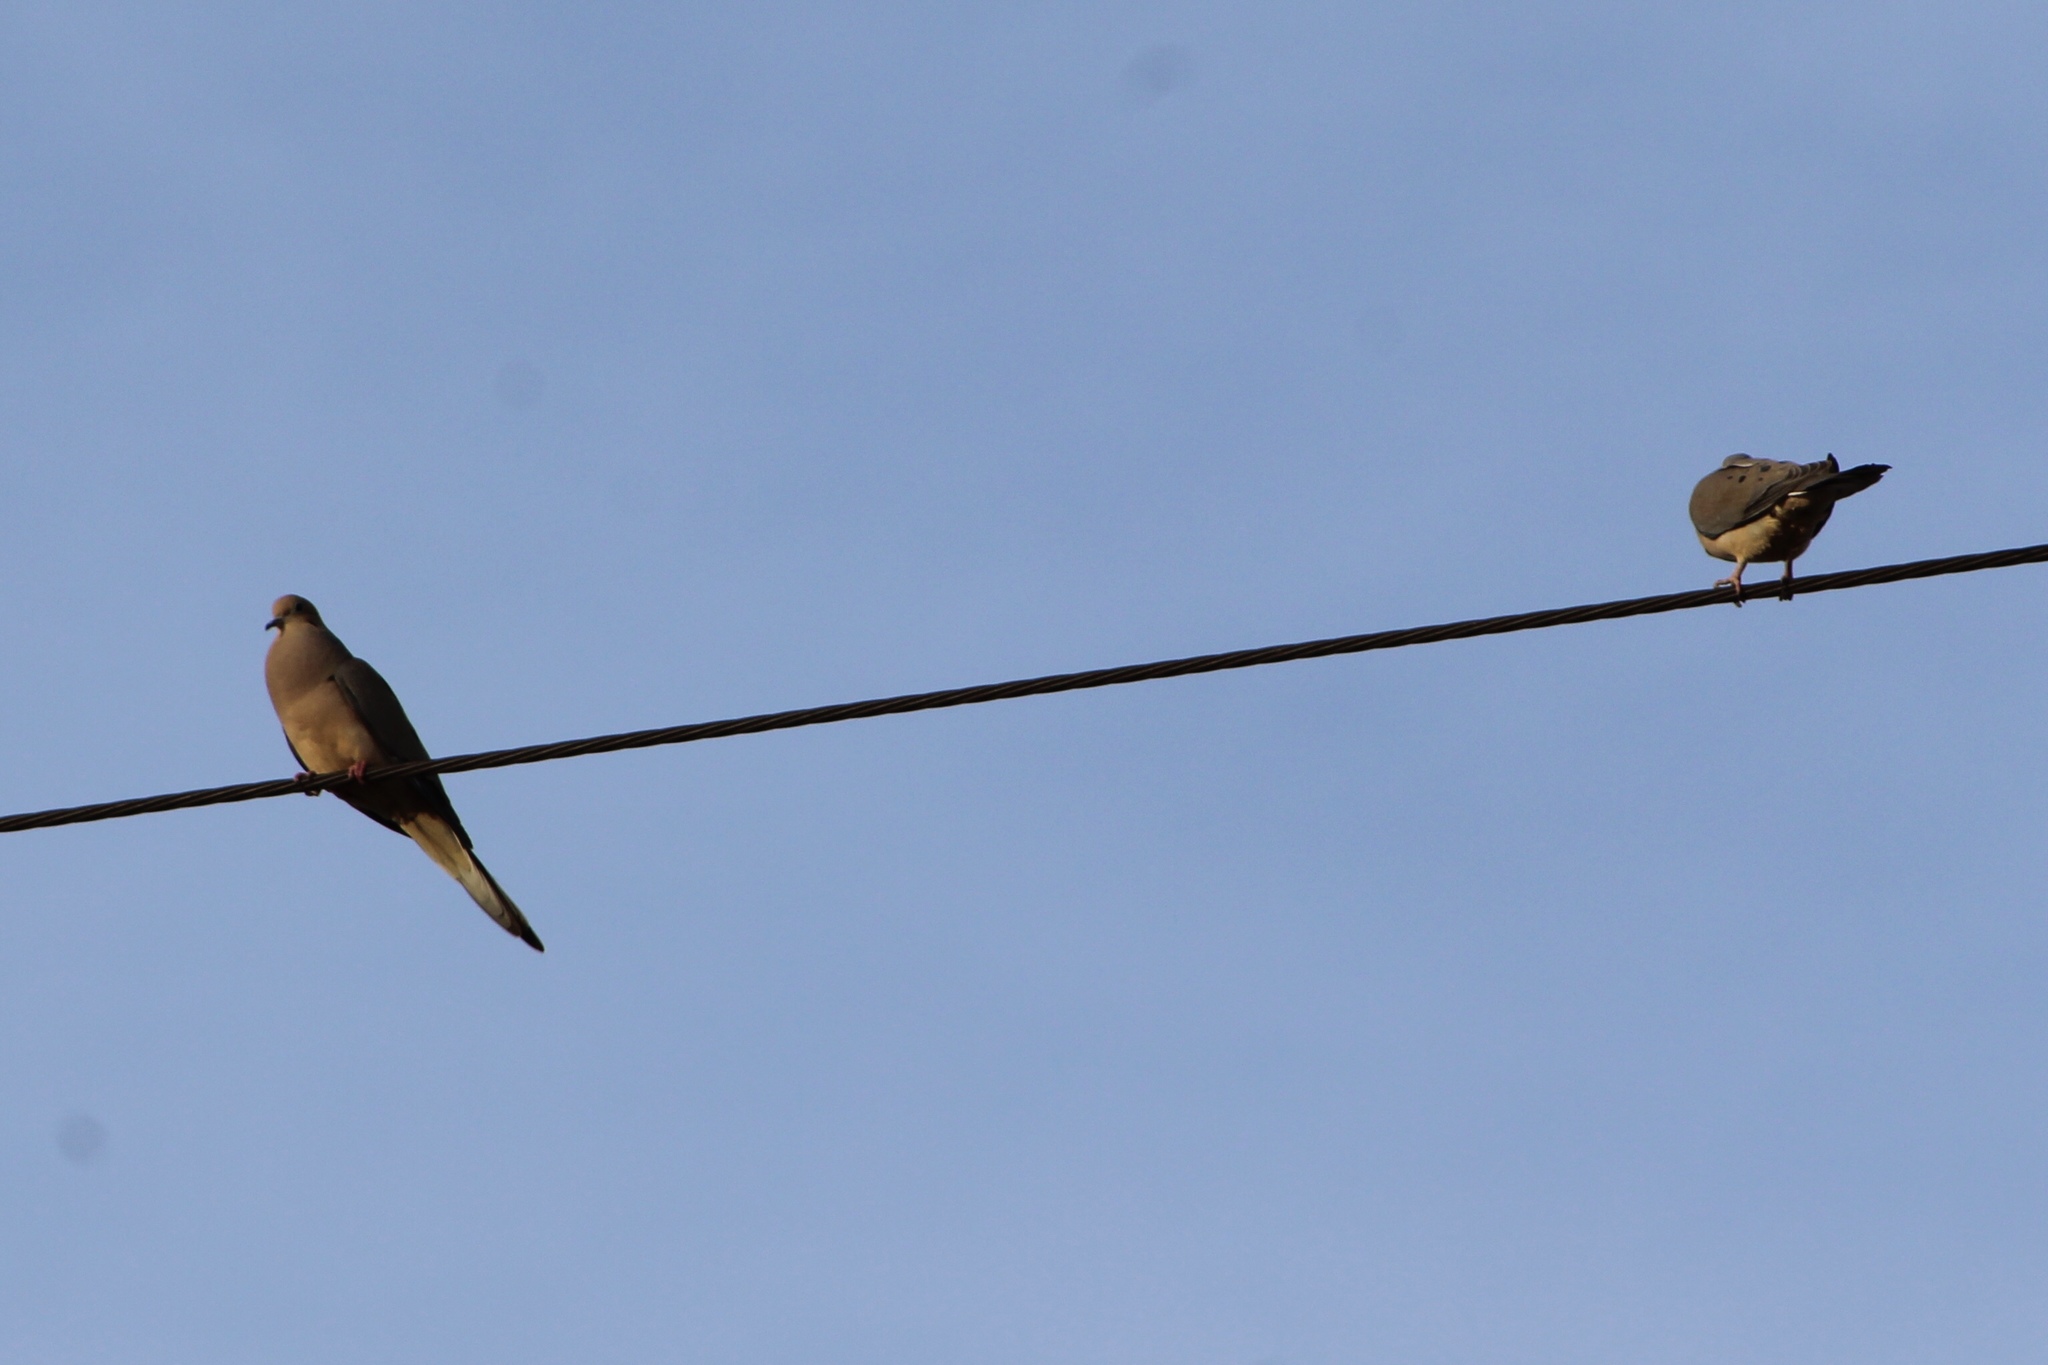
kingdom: Animalia
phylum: Chordata
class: Aves
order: Columbiformes
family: Columbidae
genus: Zenaida
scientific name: Zenaida macroura
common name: Mourning dove
